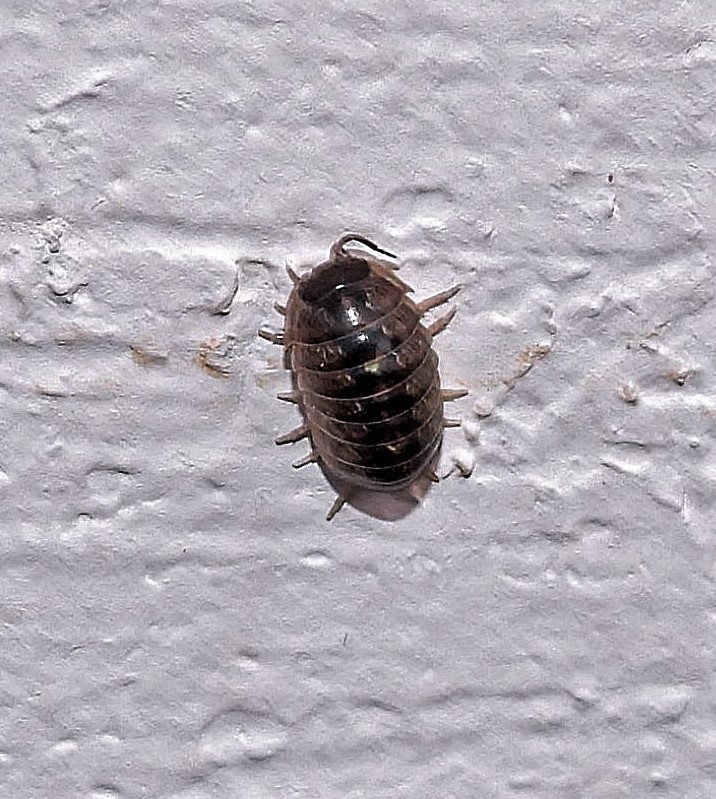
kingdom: Animalia
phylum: Arthropoda
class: Malacostraca
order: Isopoda
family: Armadillidiidae
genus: Armadillidium
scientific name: Armadillidium vulgare
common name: Common pill woodlouse
